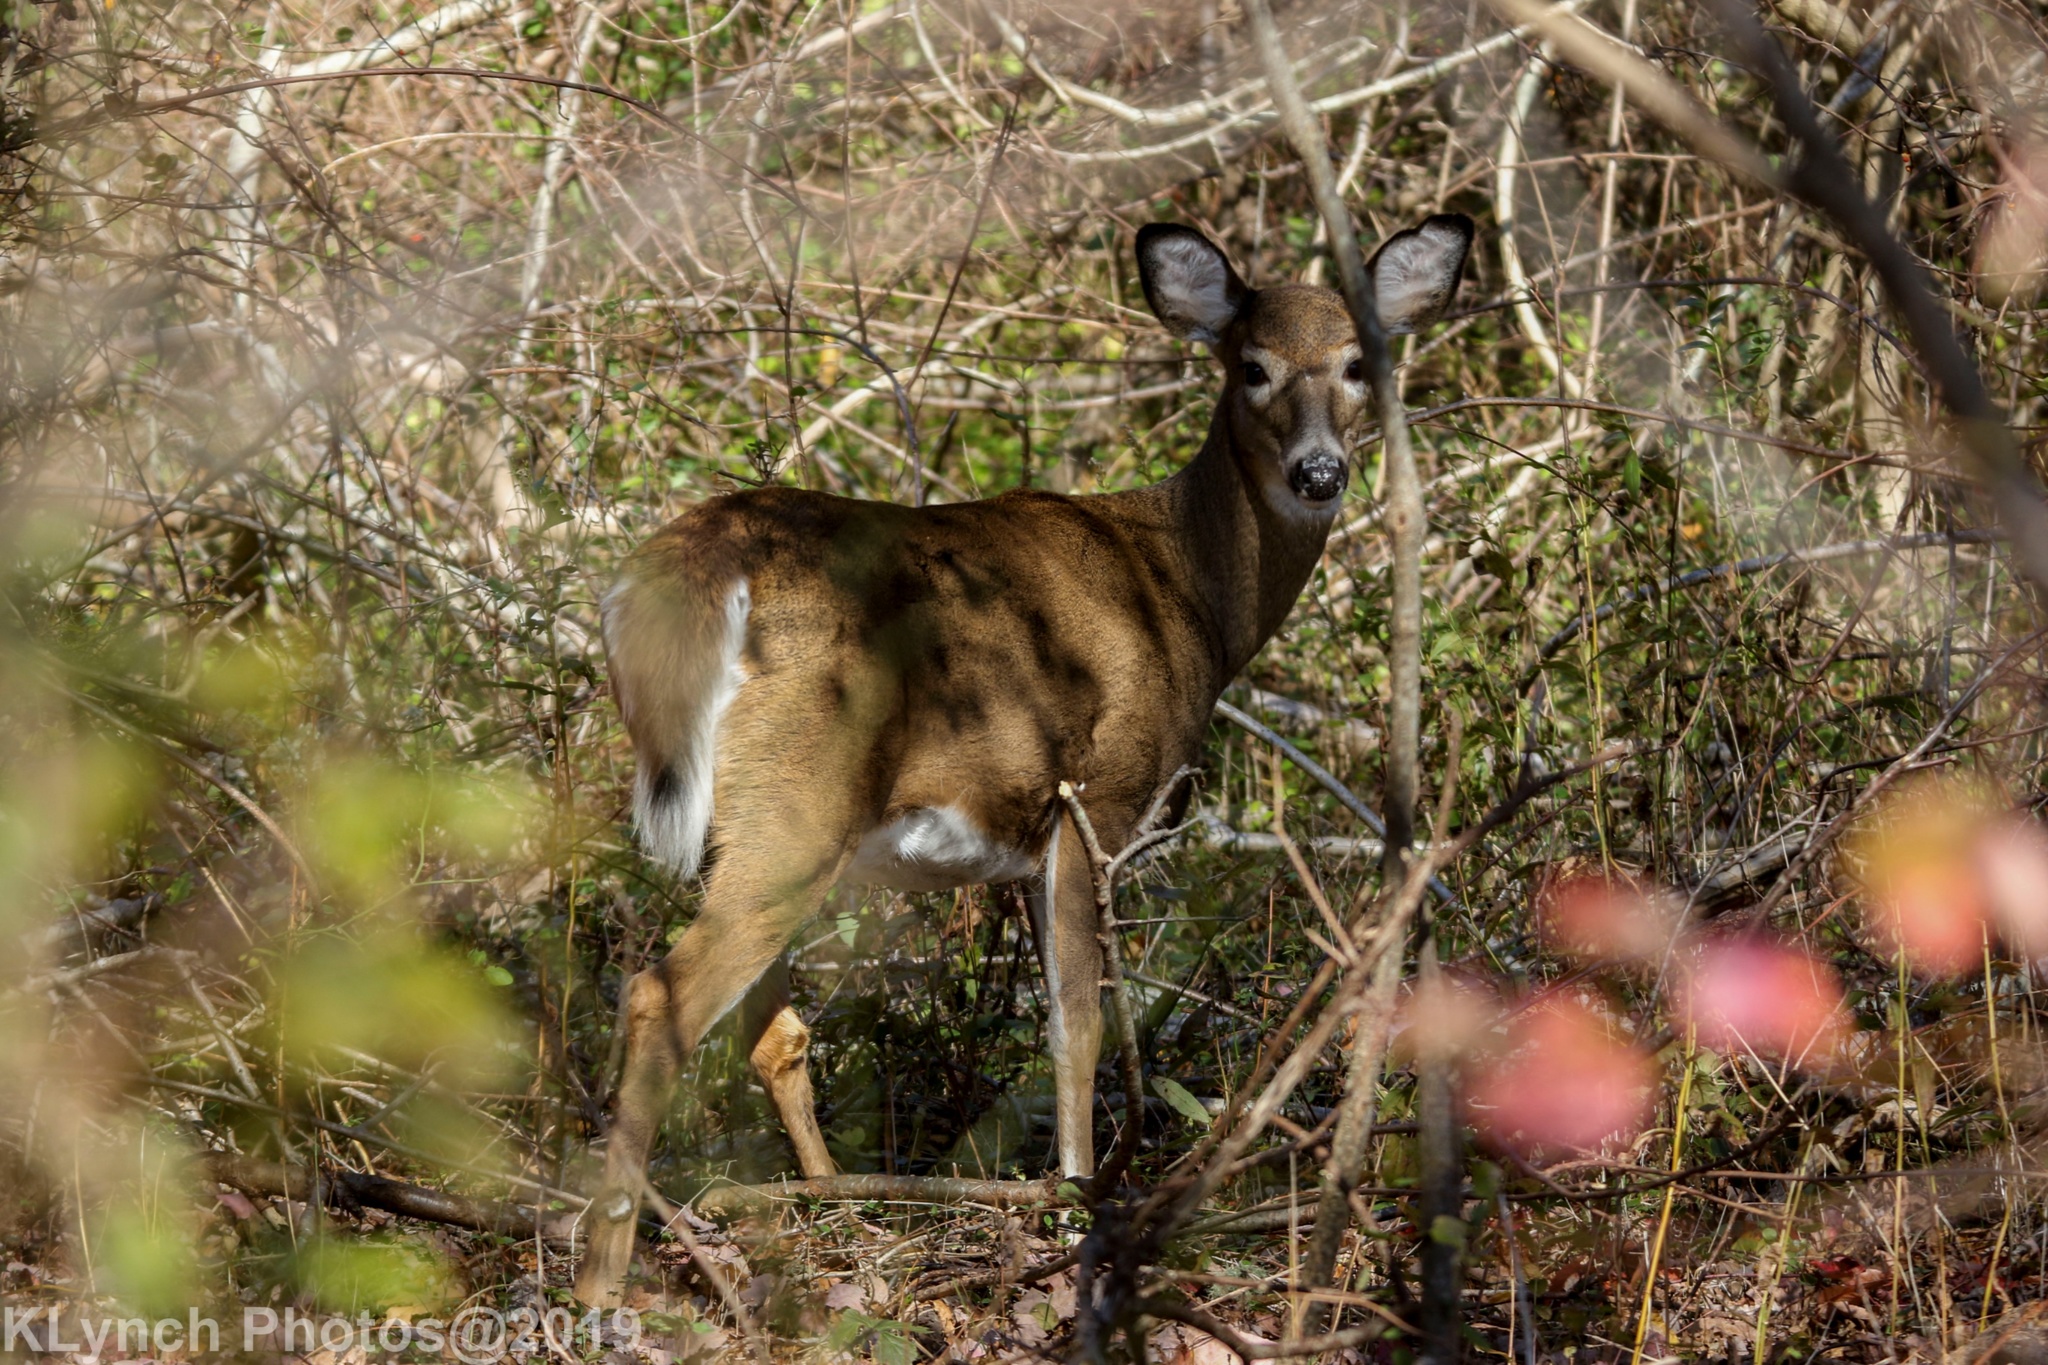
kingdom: Animalia
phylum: Chordata
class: Mammalia
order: Artiodactyla
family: Cervidae
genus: Odocoileus
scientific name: Odocoileus virginianus
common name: White-tailed deer
